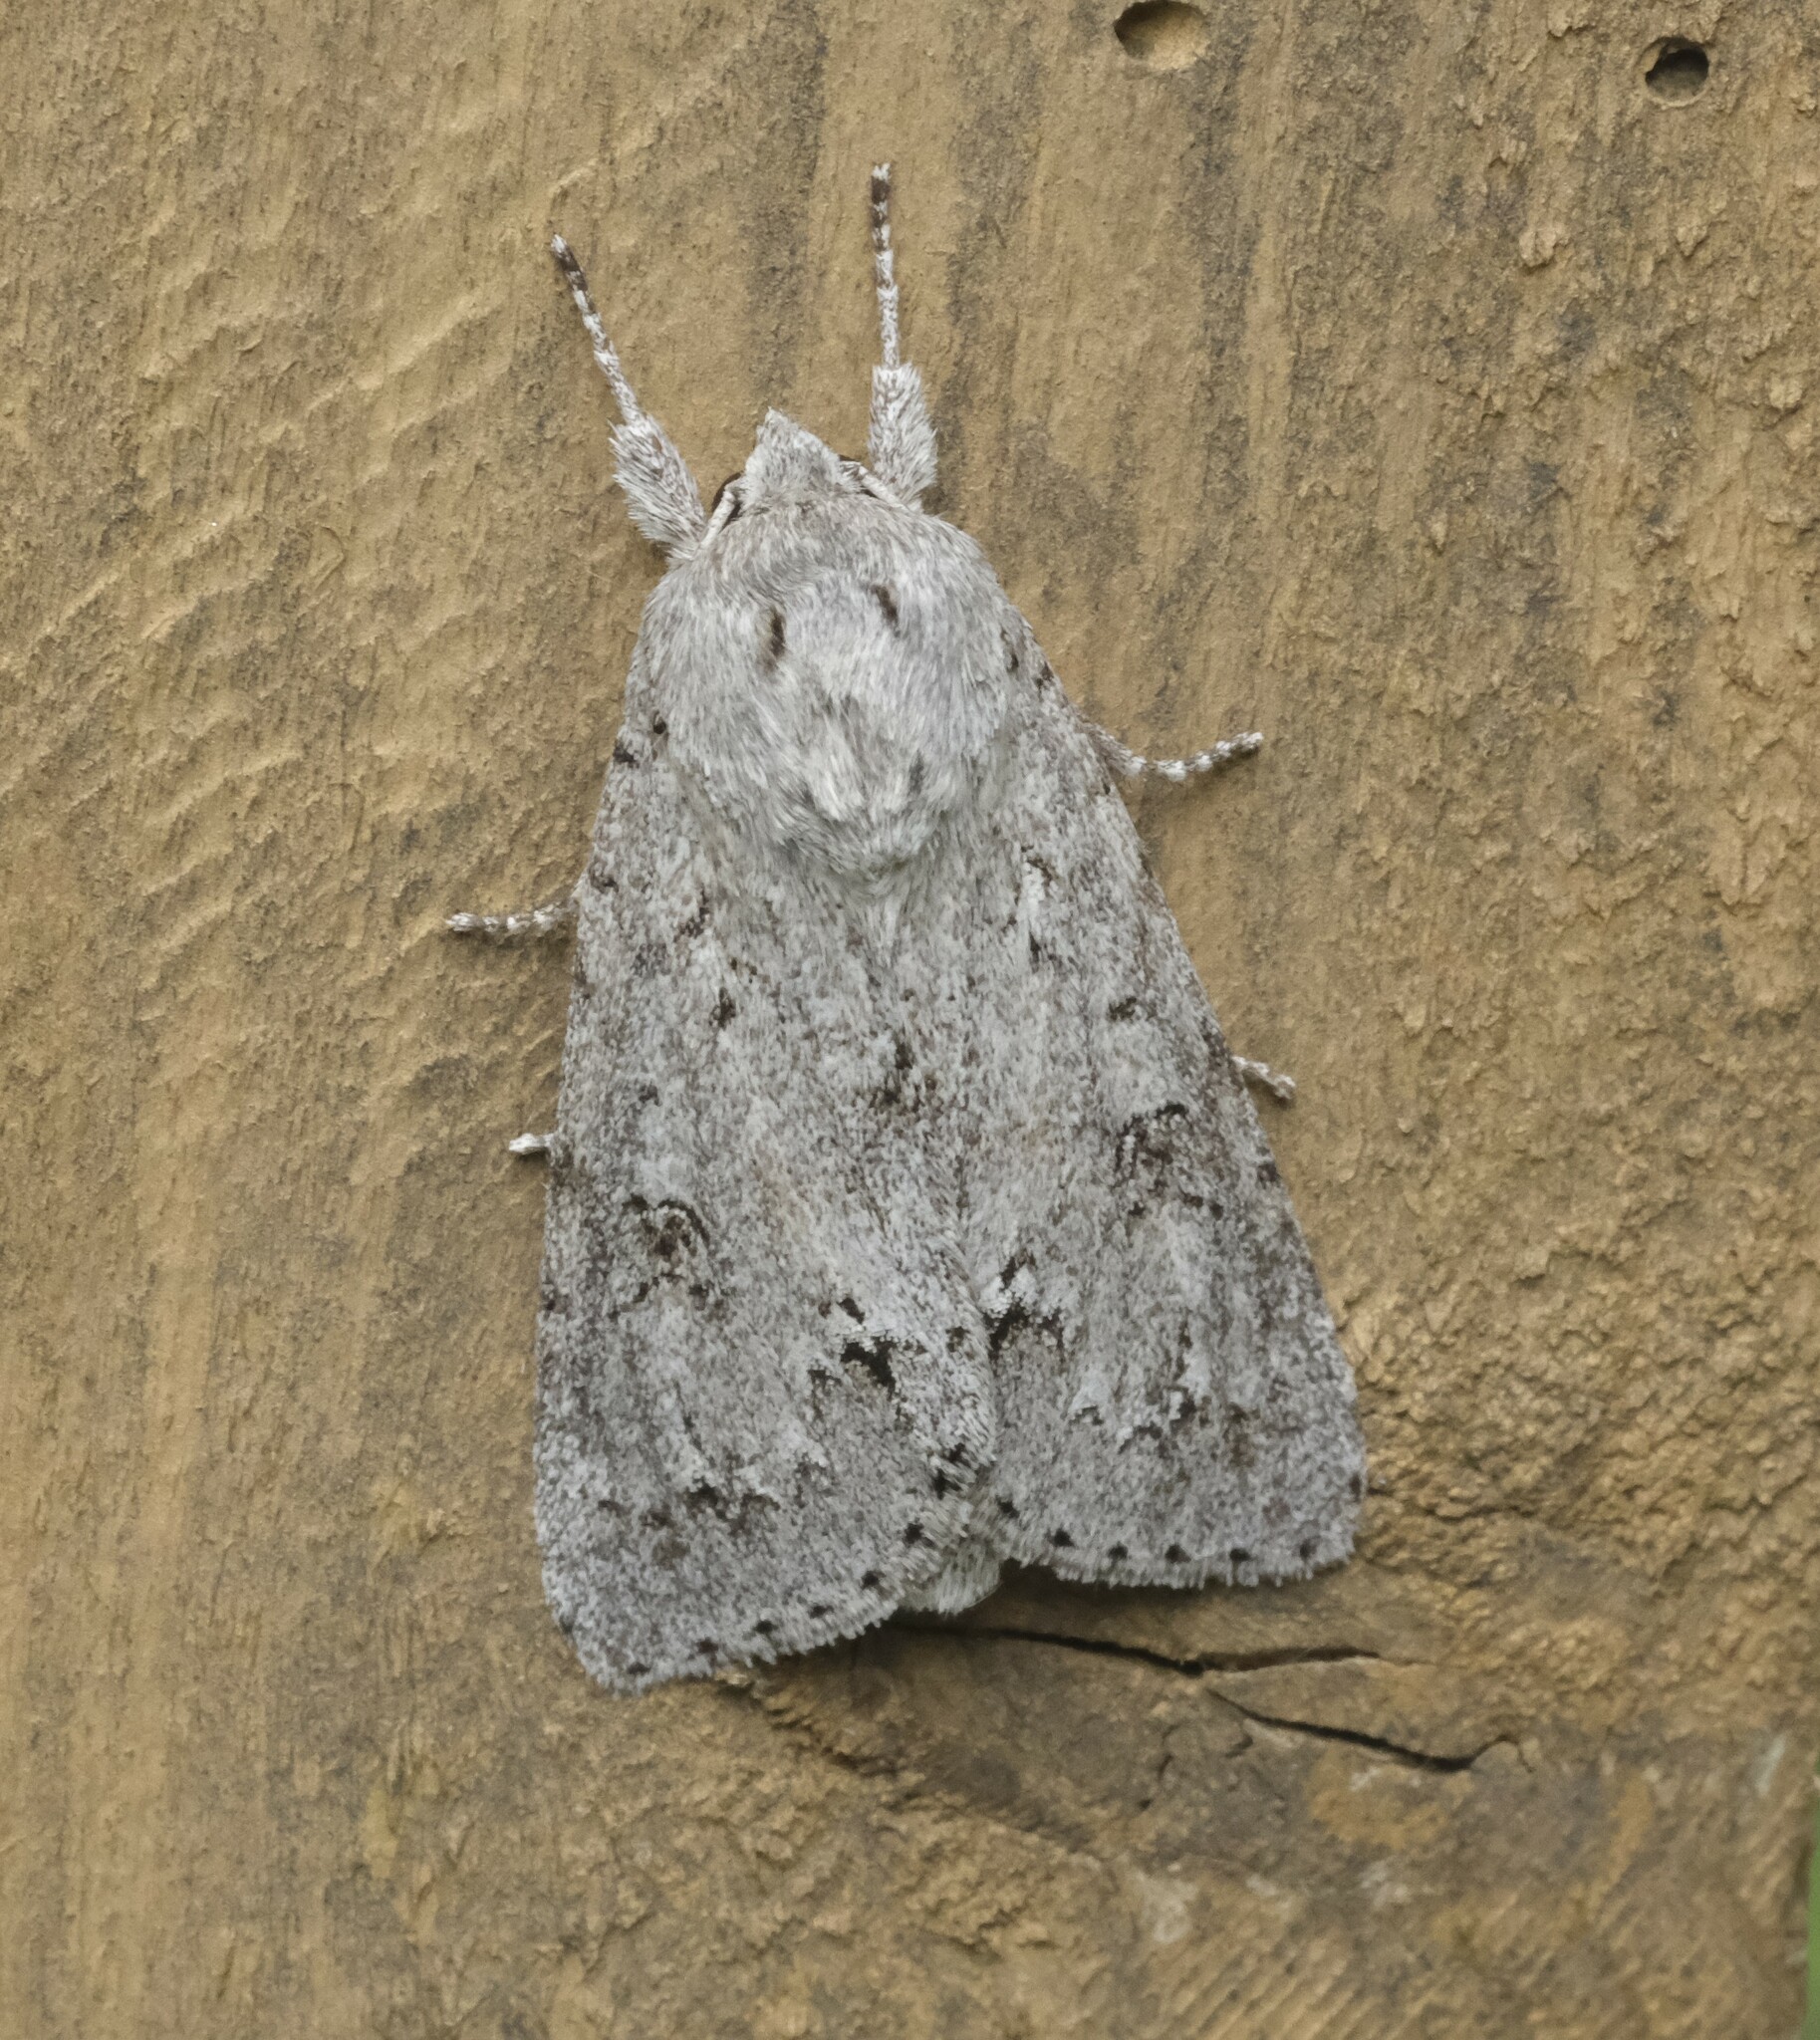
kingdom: Animalia
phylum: Arthropoda
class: Insecta
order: Lepidoptera
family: Noctuidae
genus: Acronicta
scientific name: Acronicta insita
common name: Large gray dagger
